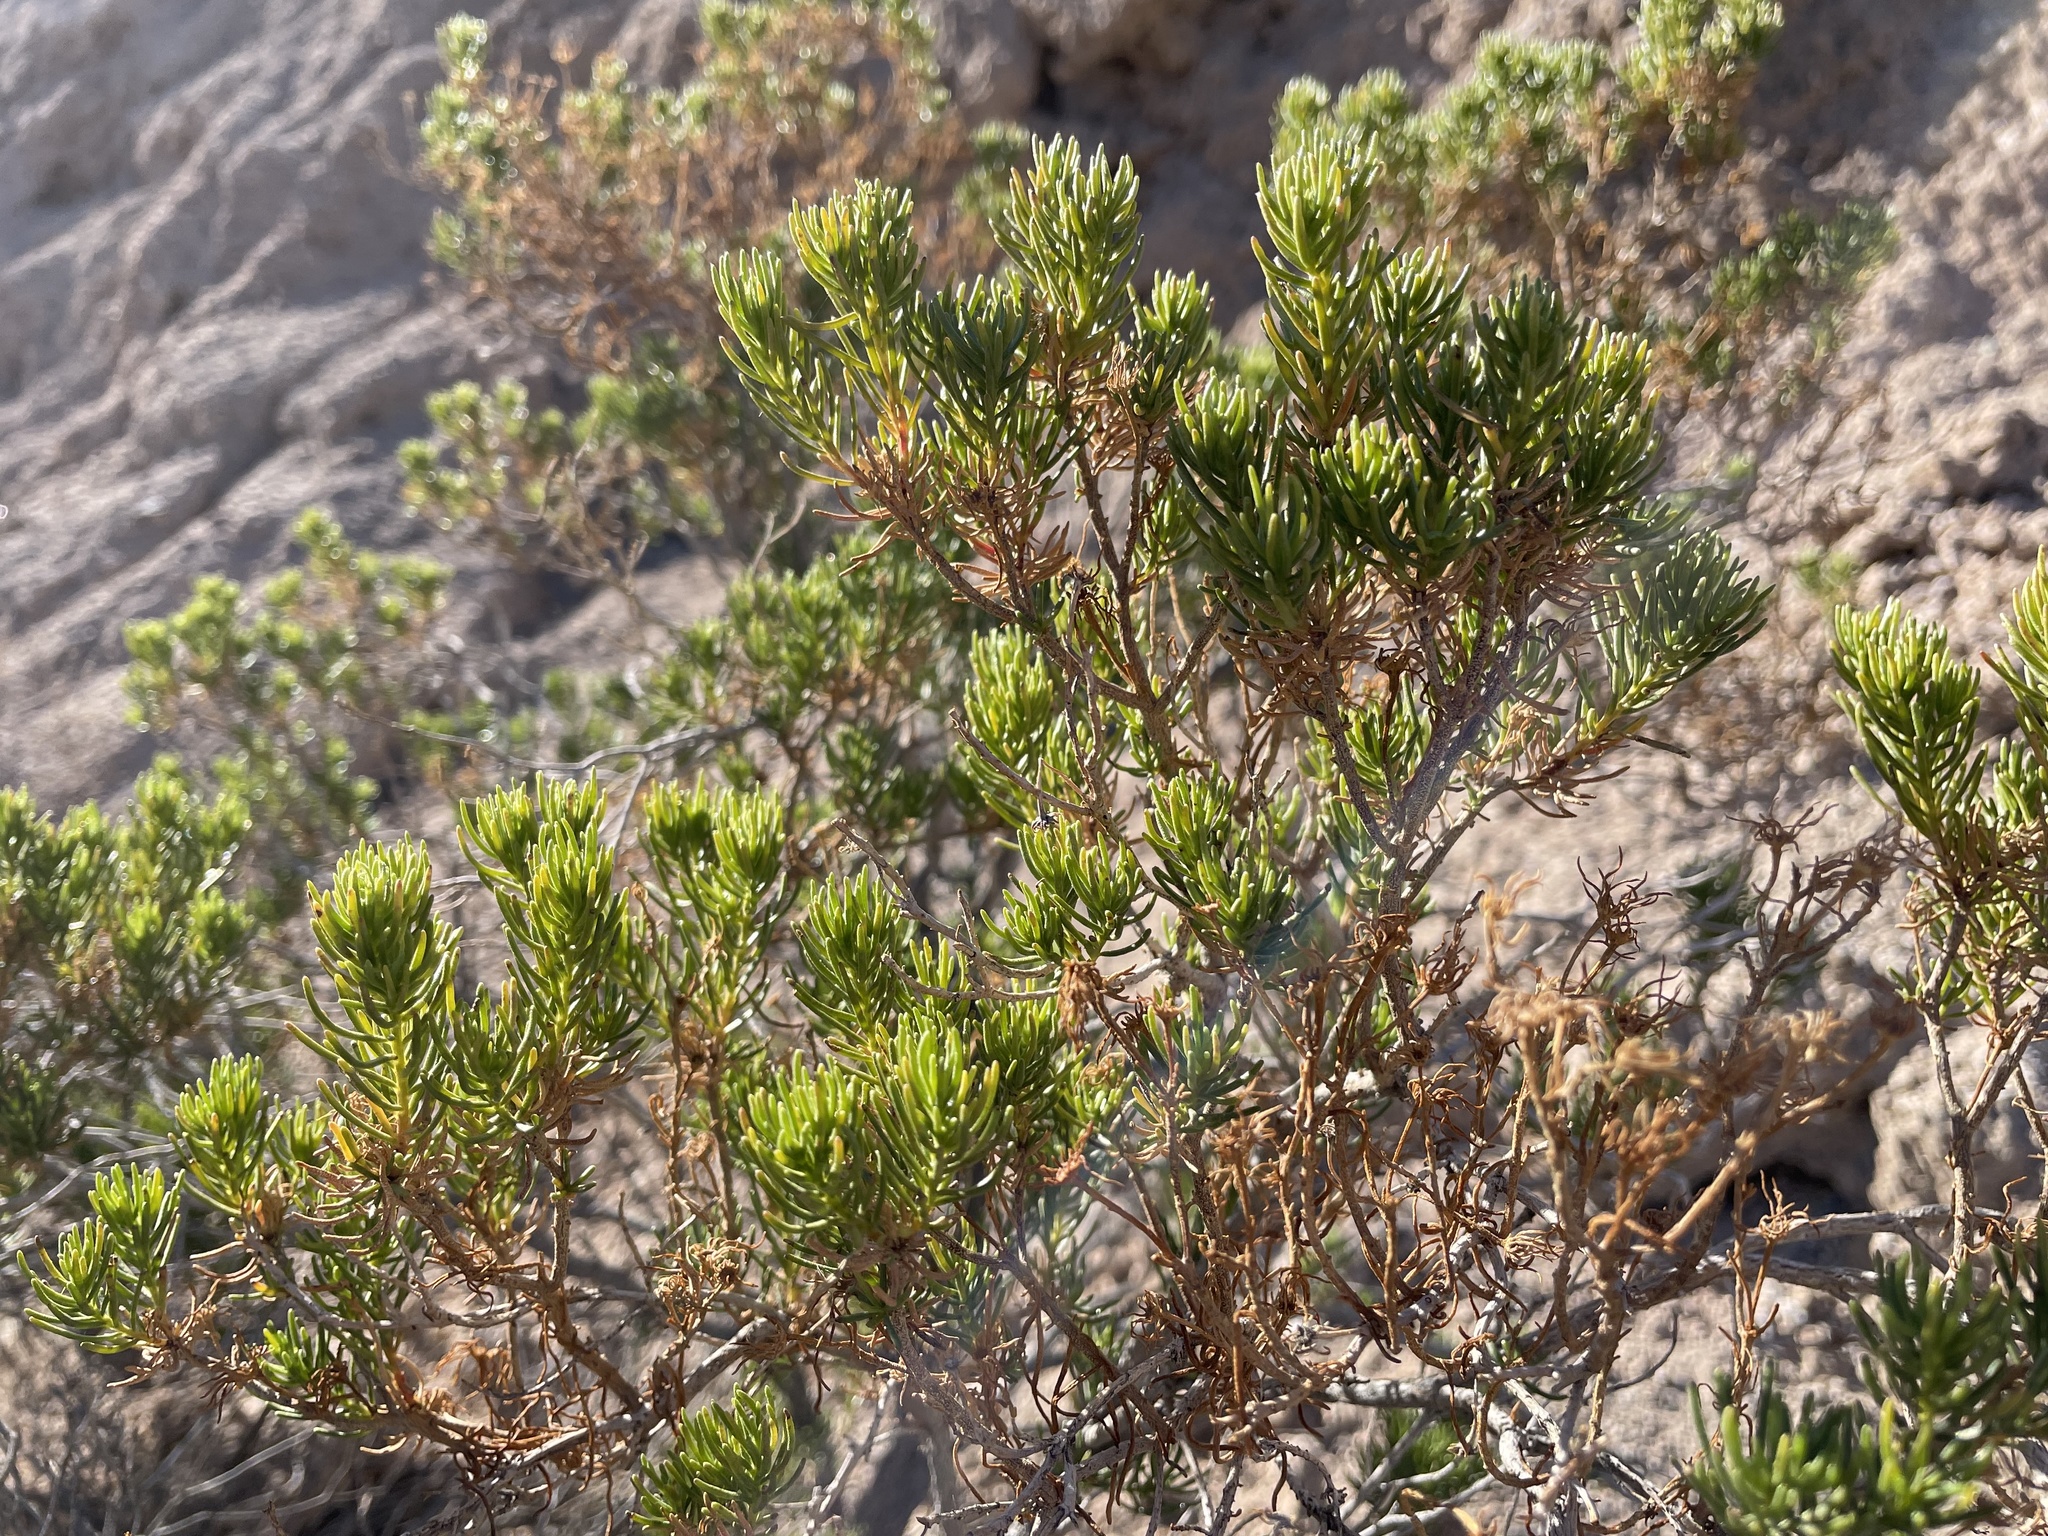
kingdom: Plantae
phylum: Tracheophyta
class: Magnoliopsida
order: Asterales
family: Asteraceae
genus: Peucephyllum
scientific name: Peucephyllum schottii
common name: Pygmy-cedar
